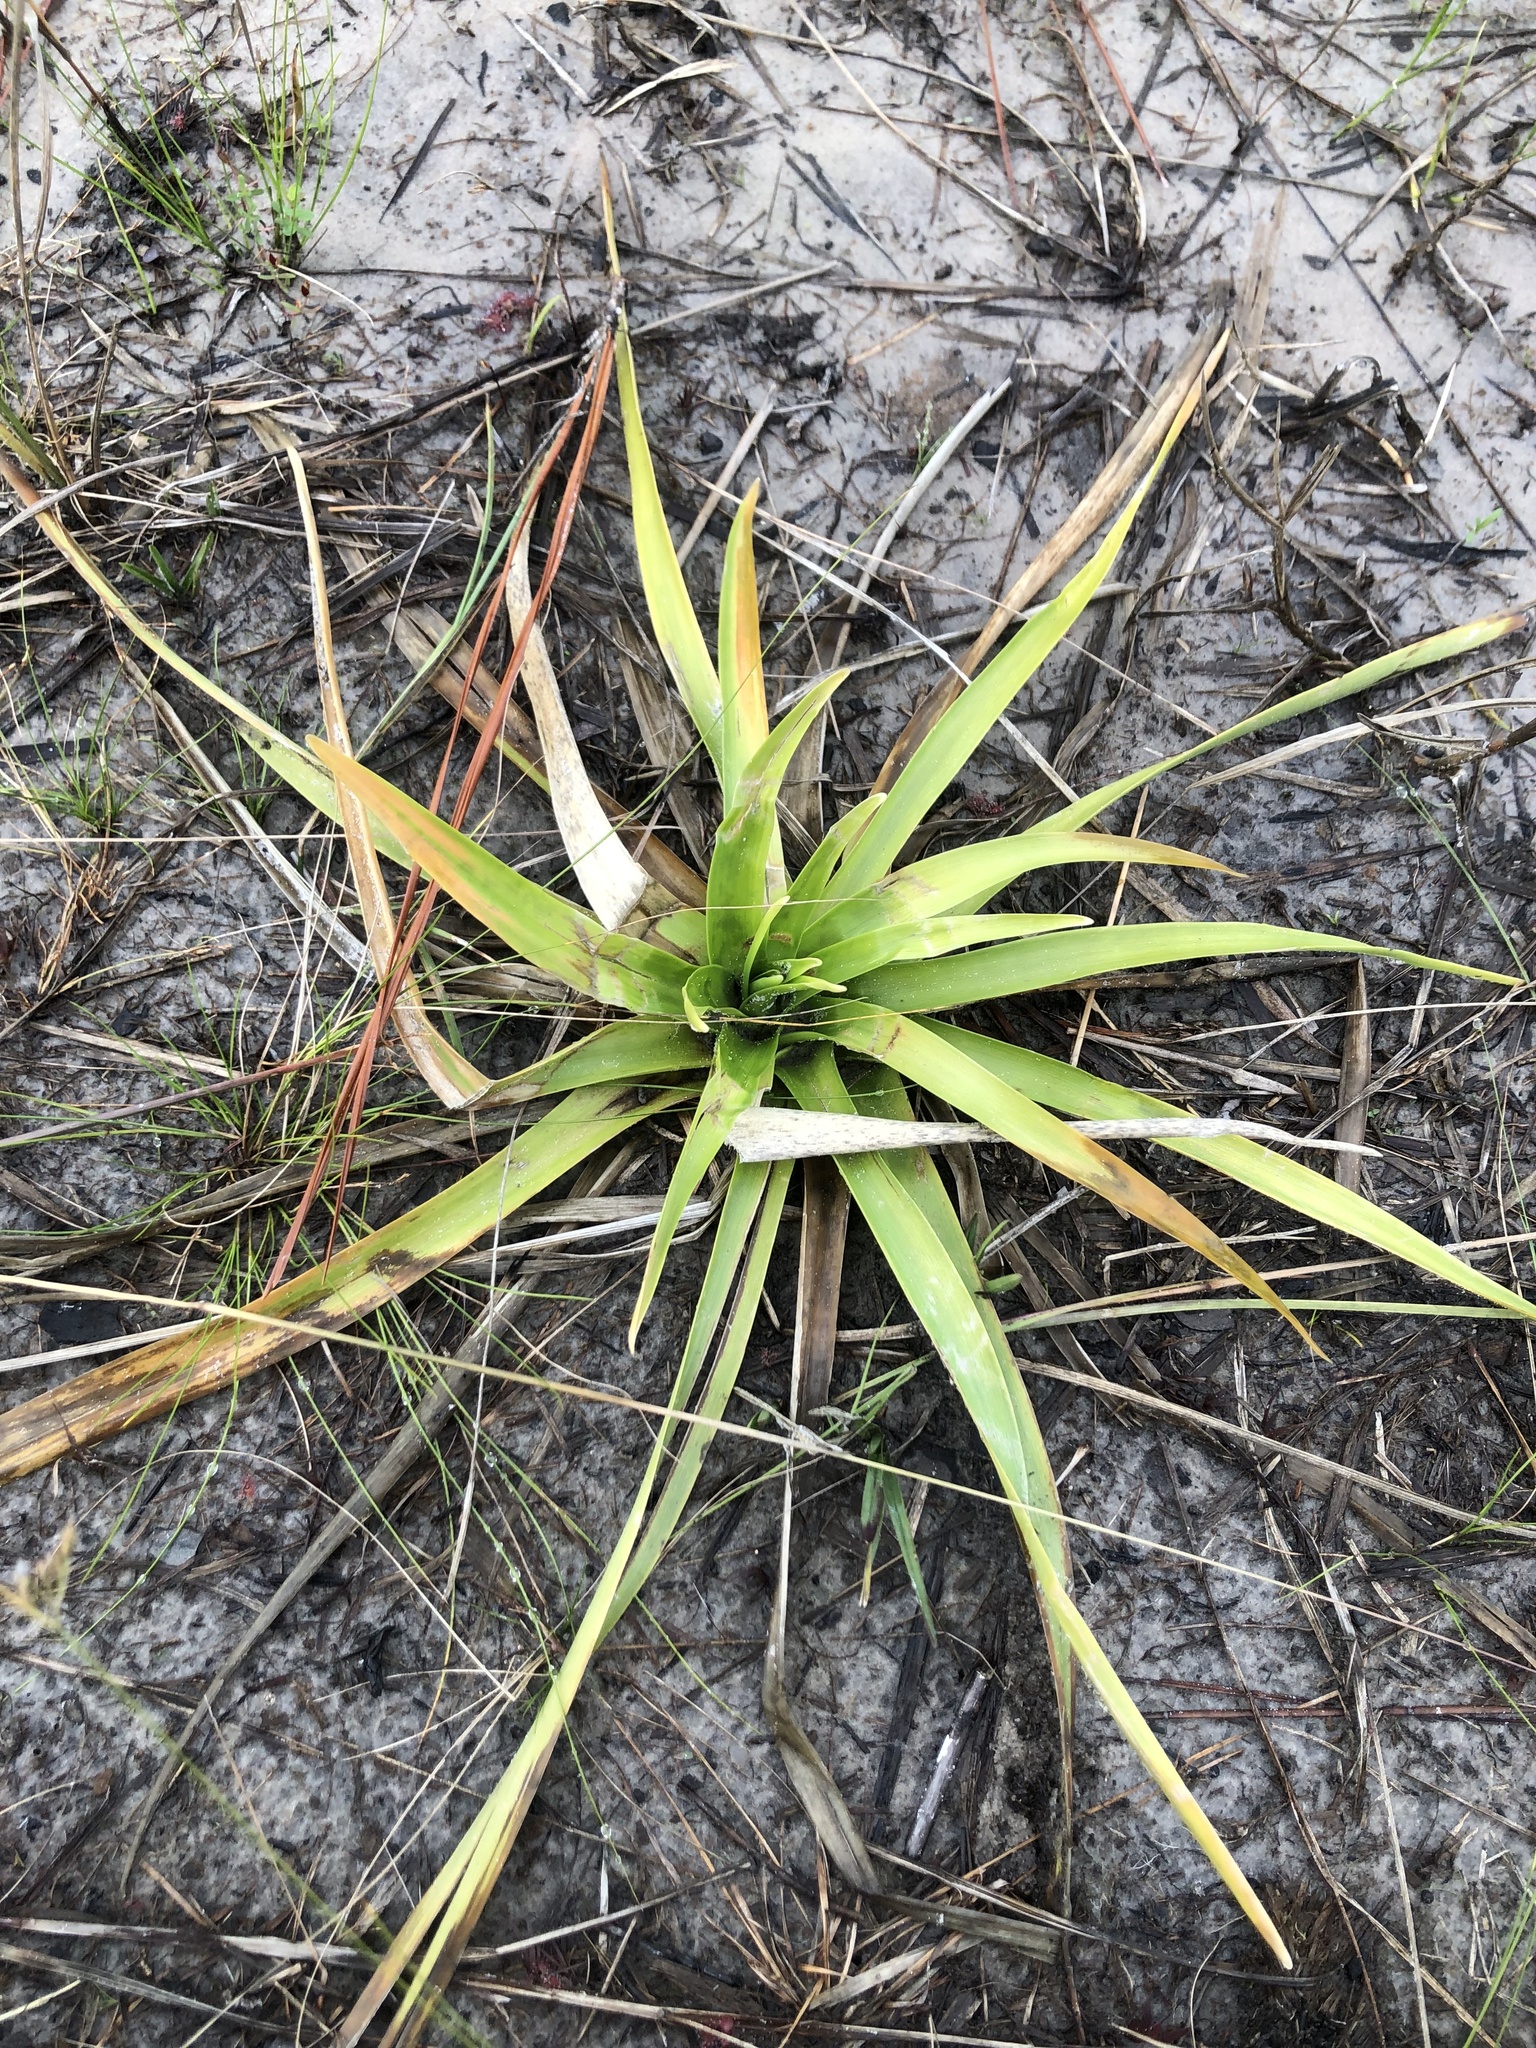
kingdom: Plantae
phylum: Tracheophyta
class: Liliopsida
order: Poales
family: Eriocaulaceae
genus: Eriocaulon
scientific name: Eriocaulon decangulare
